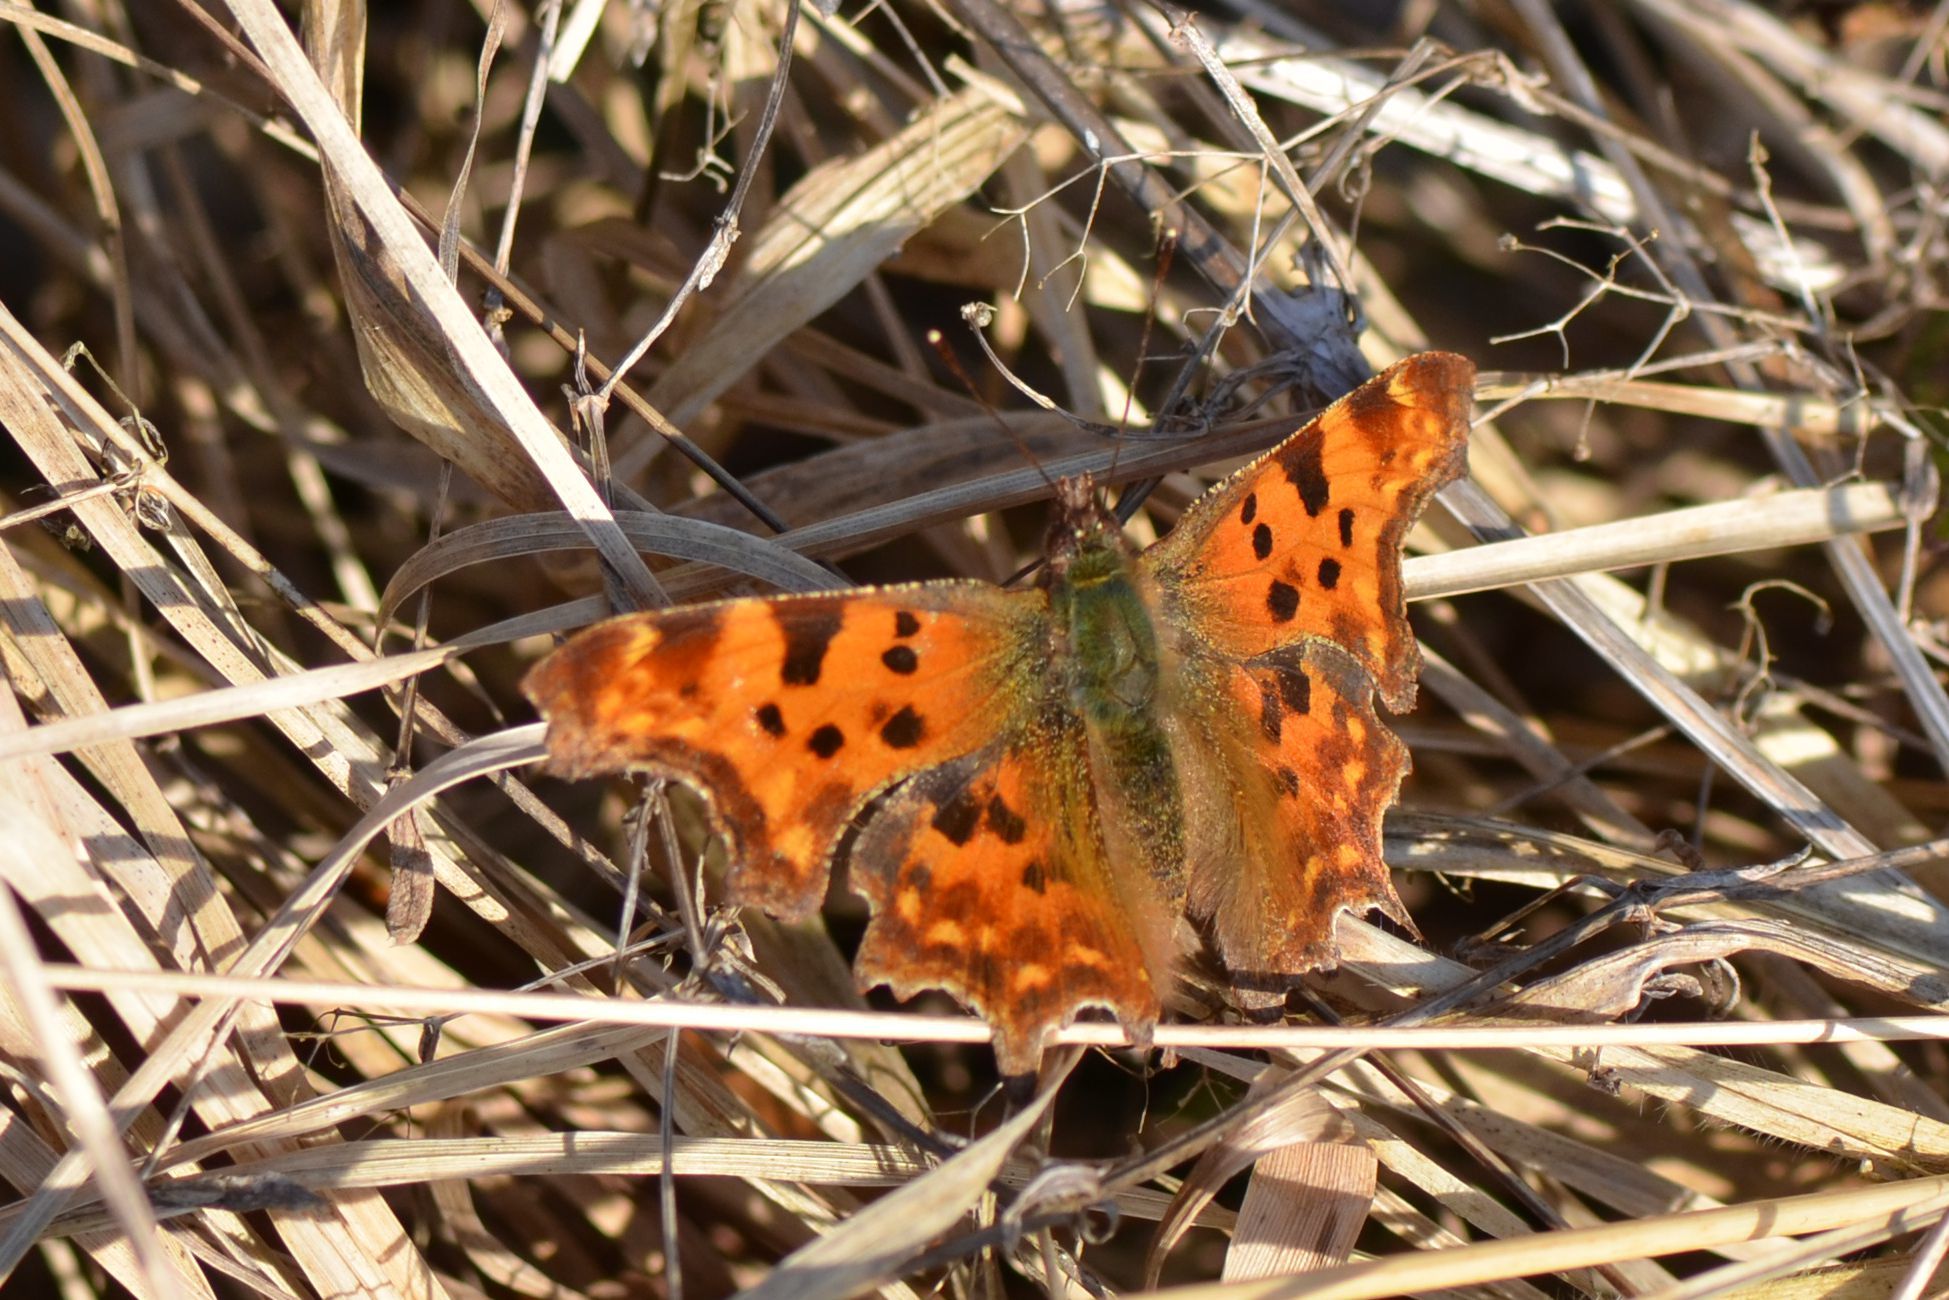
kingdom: Animalia
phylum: Arthropoda
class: Insecta
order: Lepidoptera
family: Nymphalidae
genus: Polygonia
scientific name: Polygonia c-album
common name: Comma
